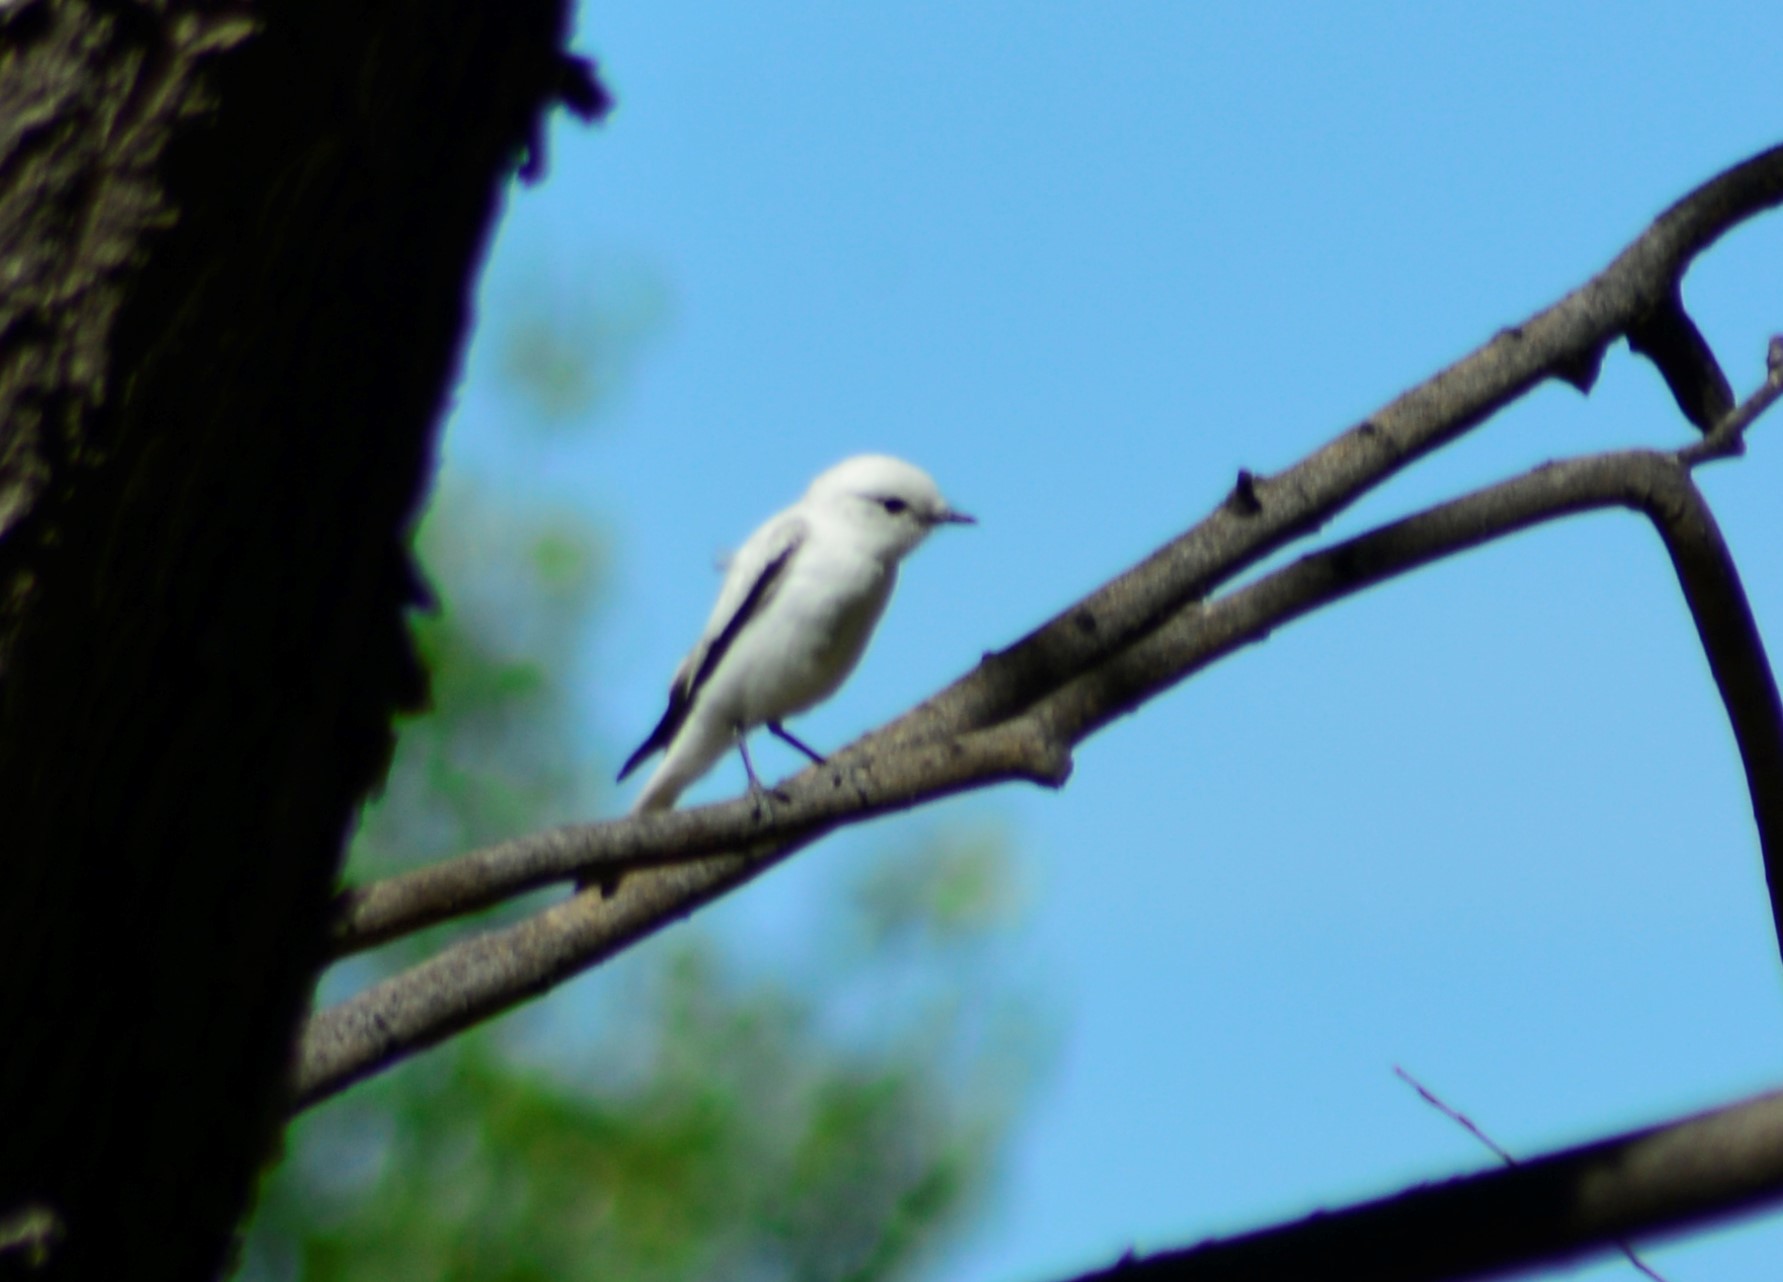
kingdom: Animalia
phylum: Chordata
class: Aves
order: Passeriformes
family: Tyrannidae
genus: Xolmis
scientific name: Xolmis irupero
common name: White monjita
